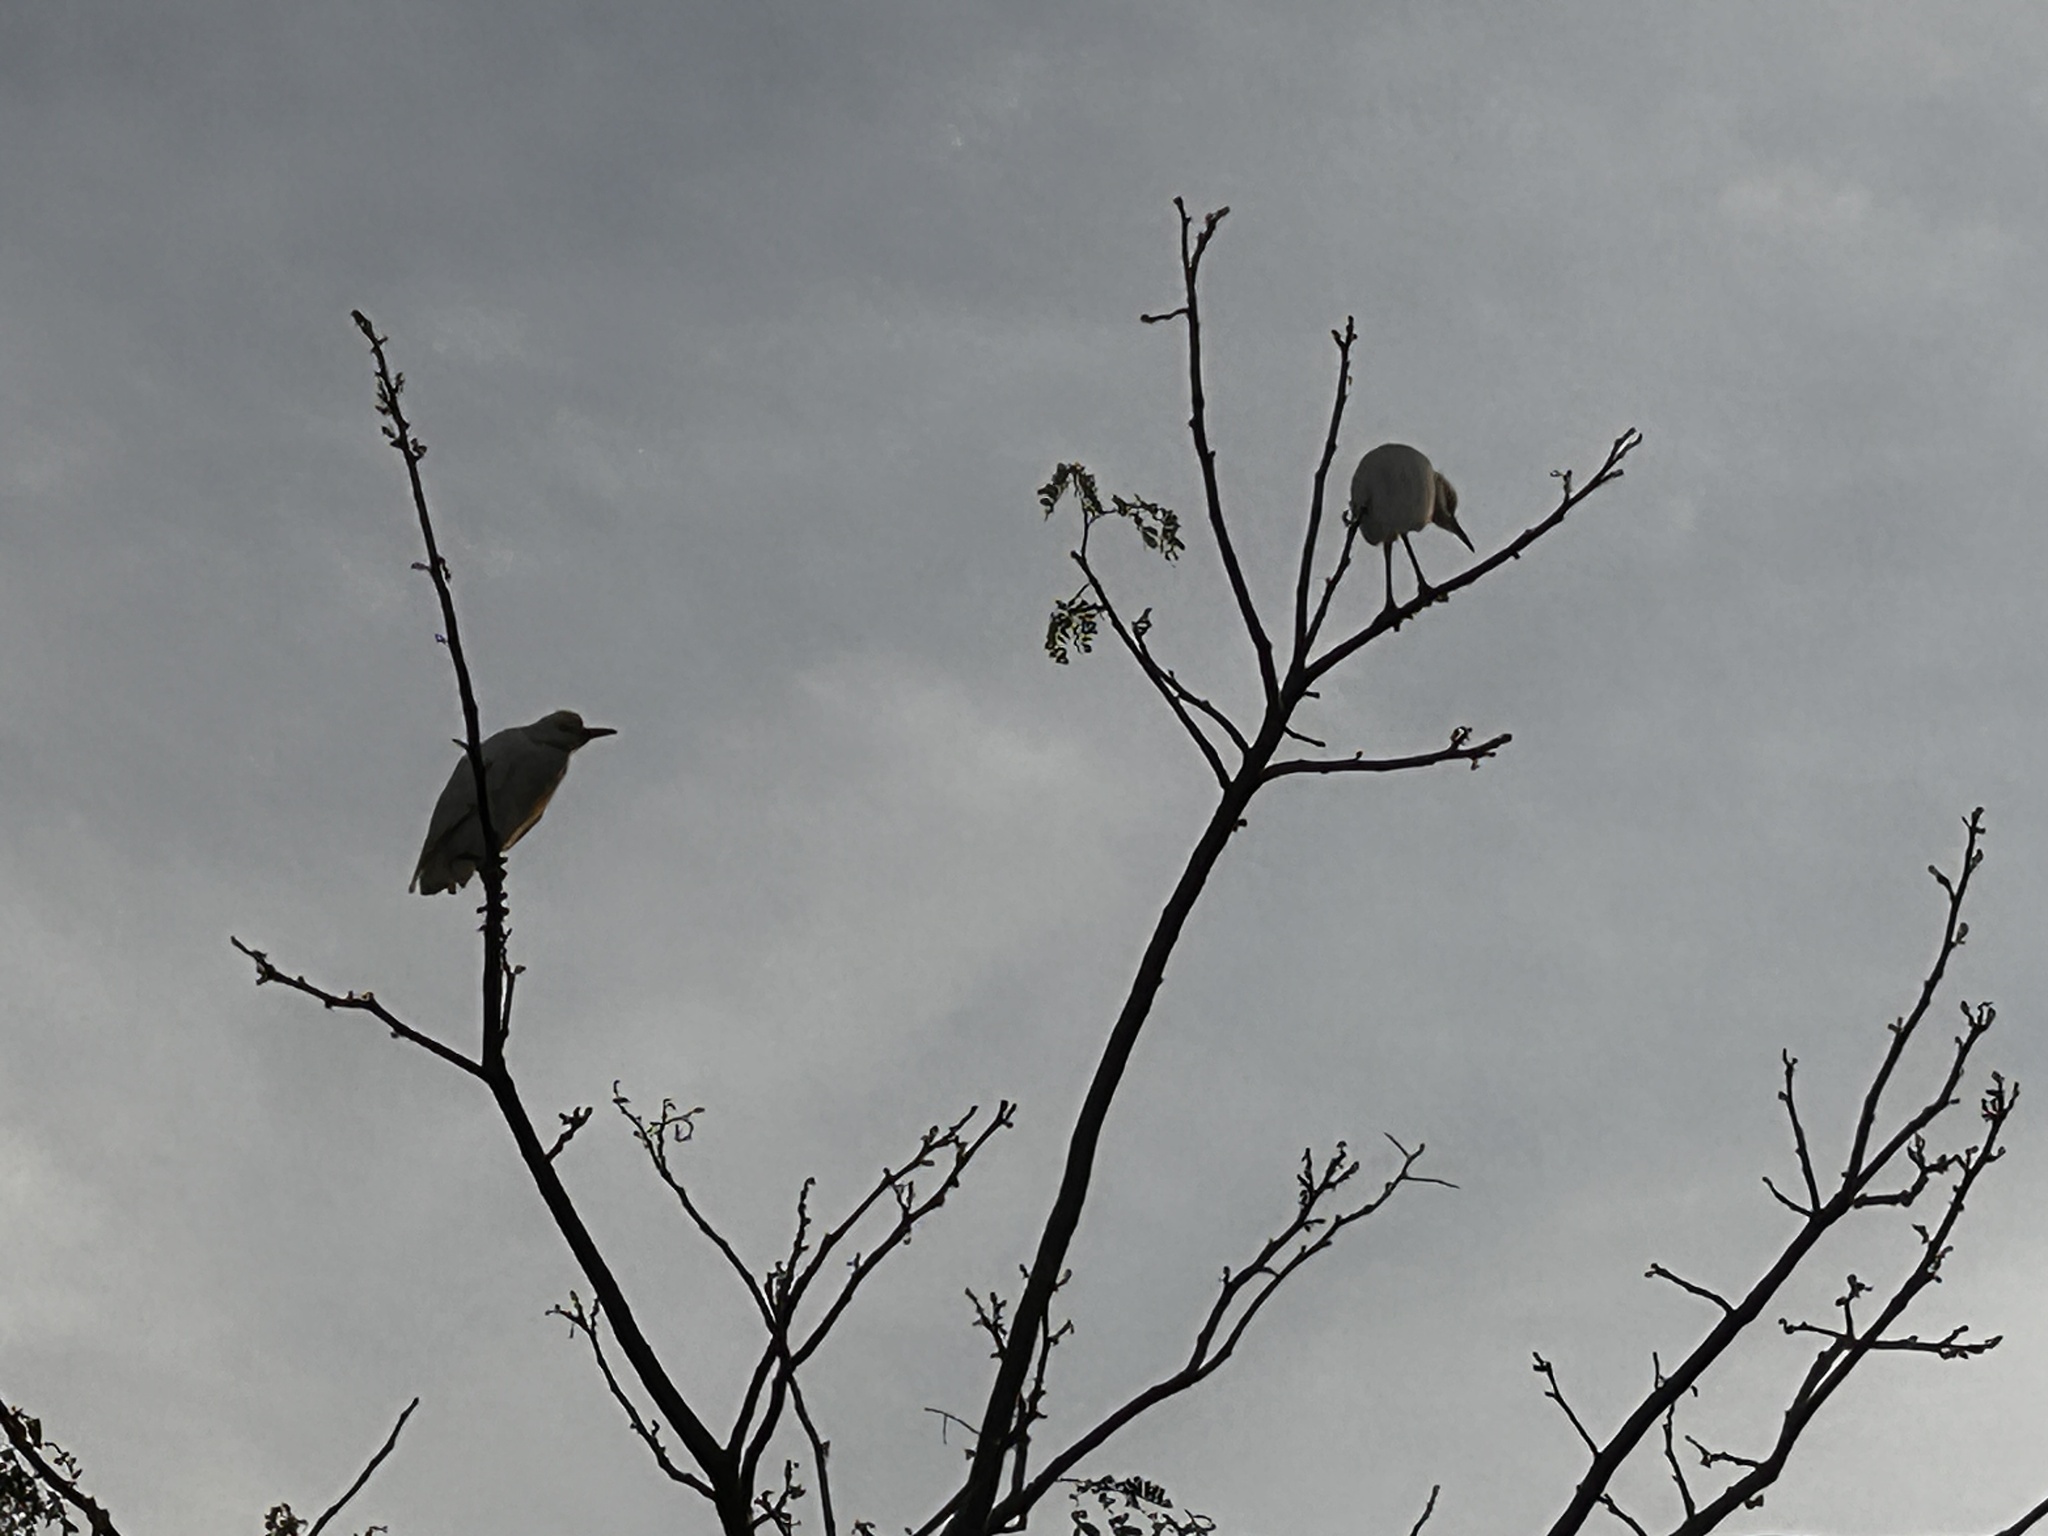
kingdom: Animalia
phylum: Chordata
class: Aves
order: Pelecaniformes
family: Ardeidae
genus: Bubulcus
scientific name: Bubulcus ibis
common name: Cattle egret
